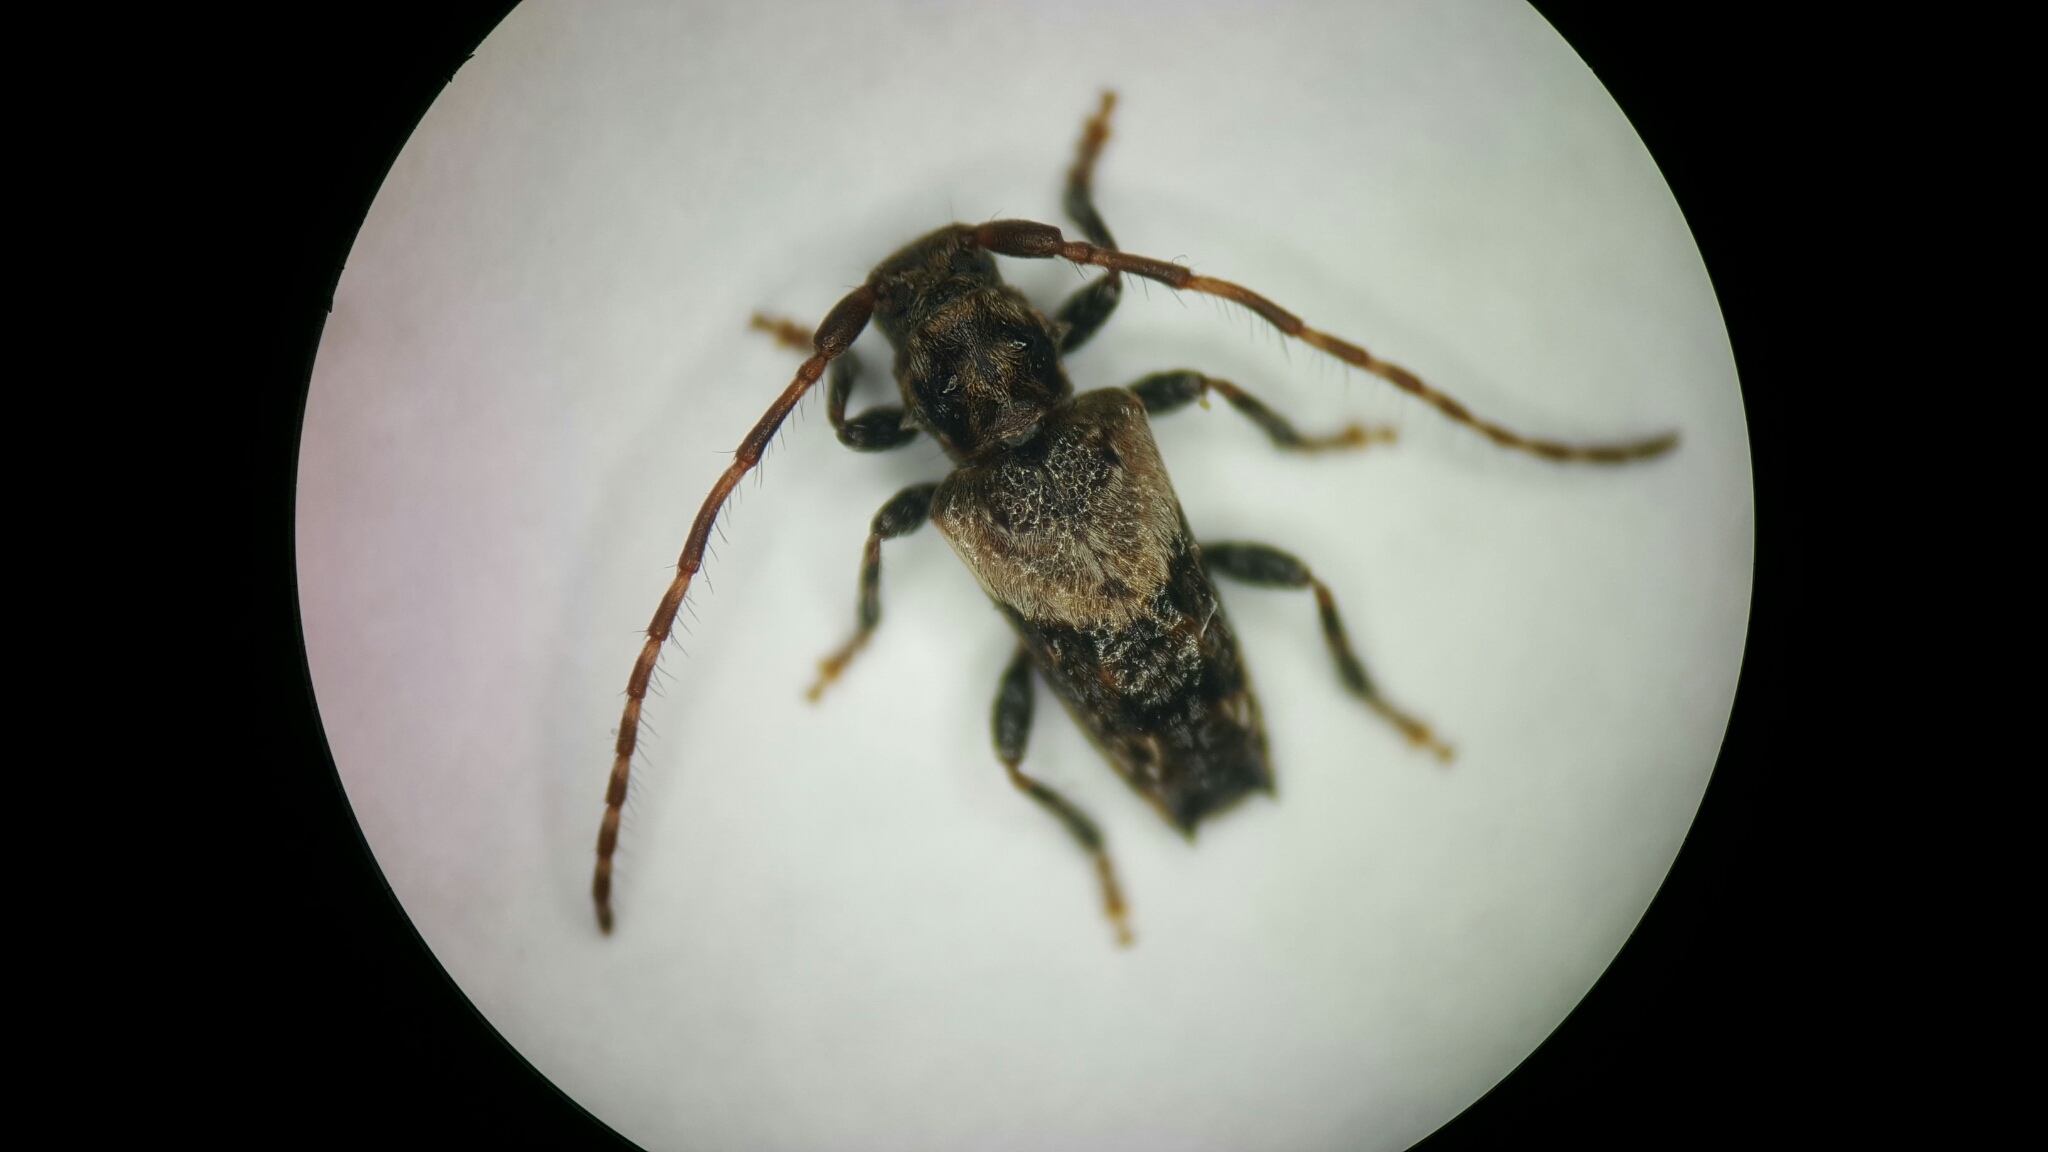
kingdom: Animalia
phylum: Arthropoda
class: Insecta
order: Coleoptera
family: Cerambycidae
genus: Pogonocherus
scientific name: Pogonocherus hispidus
